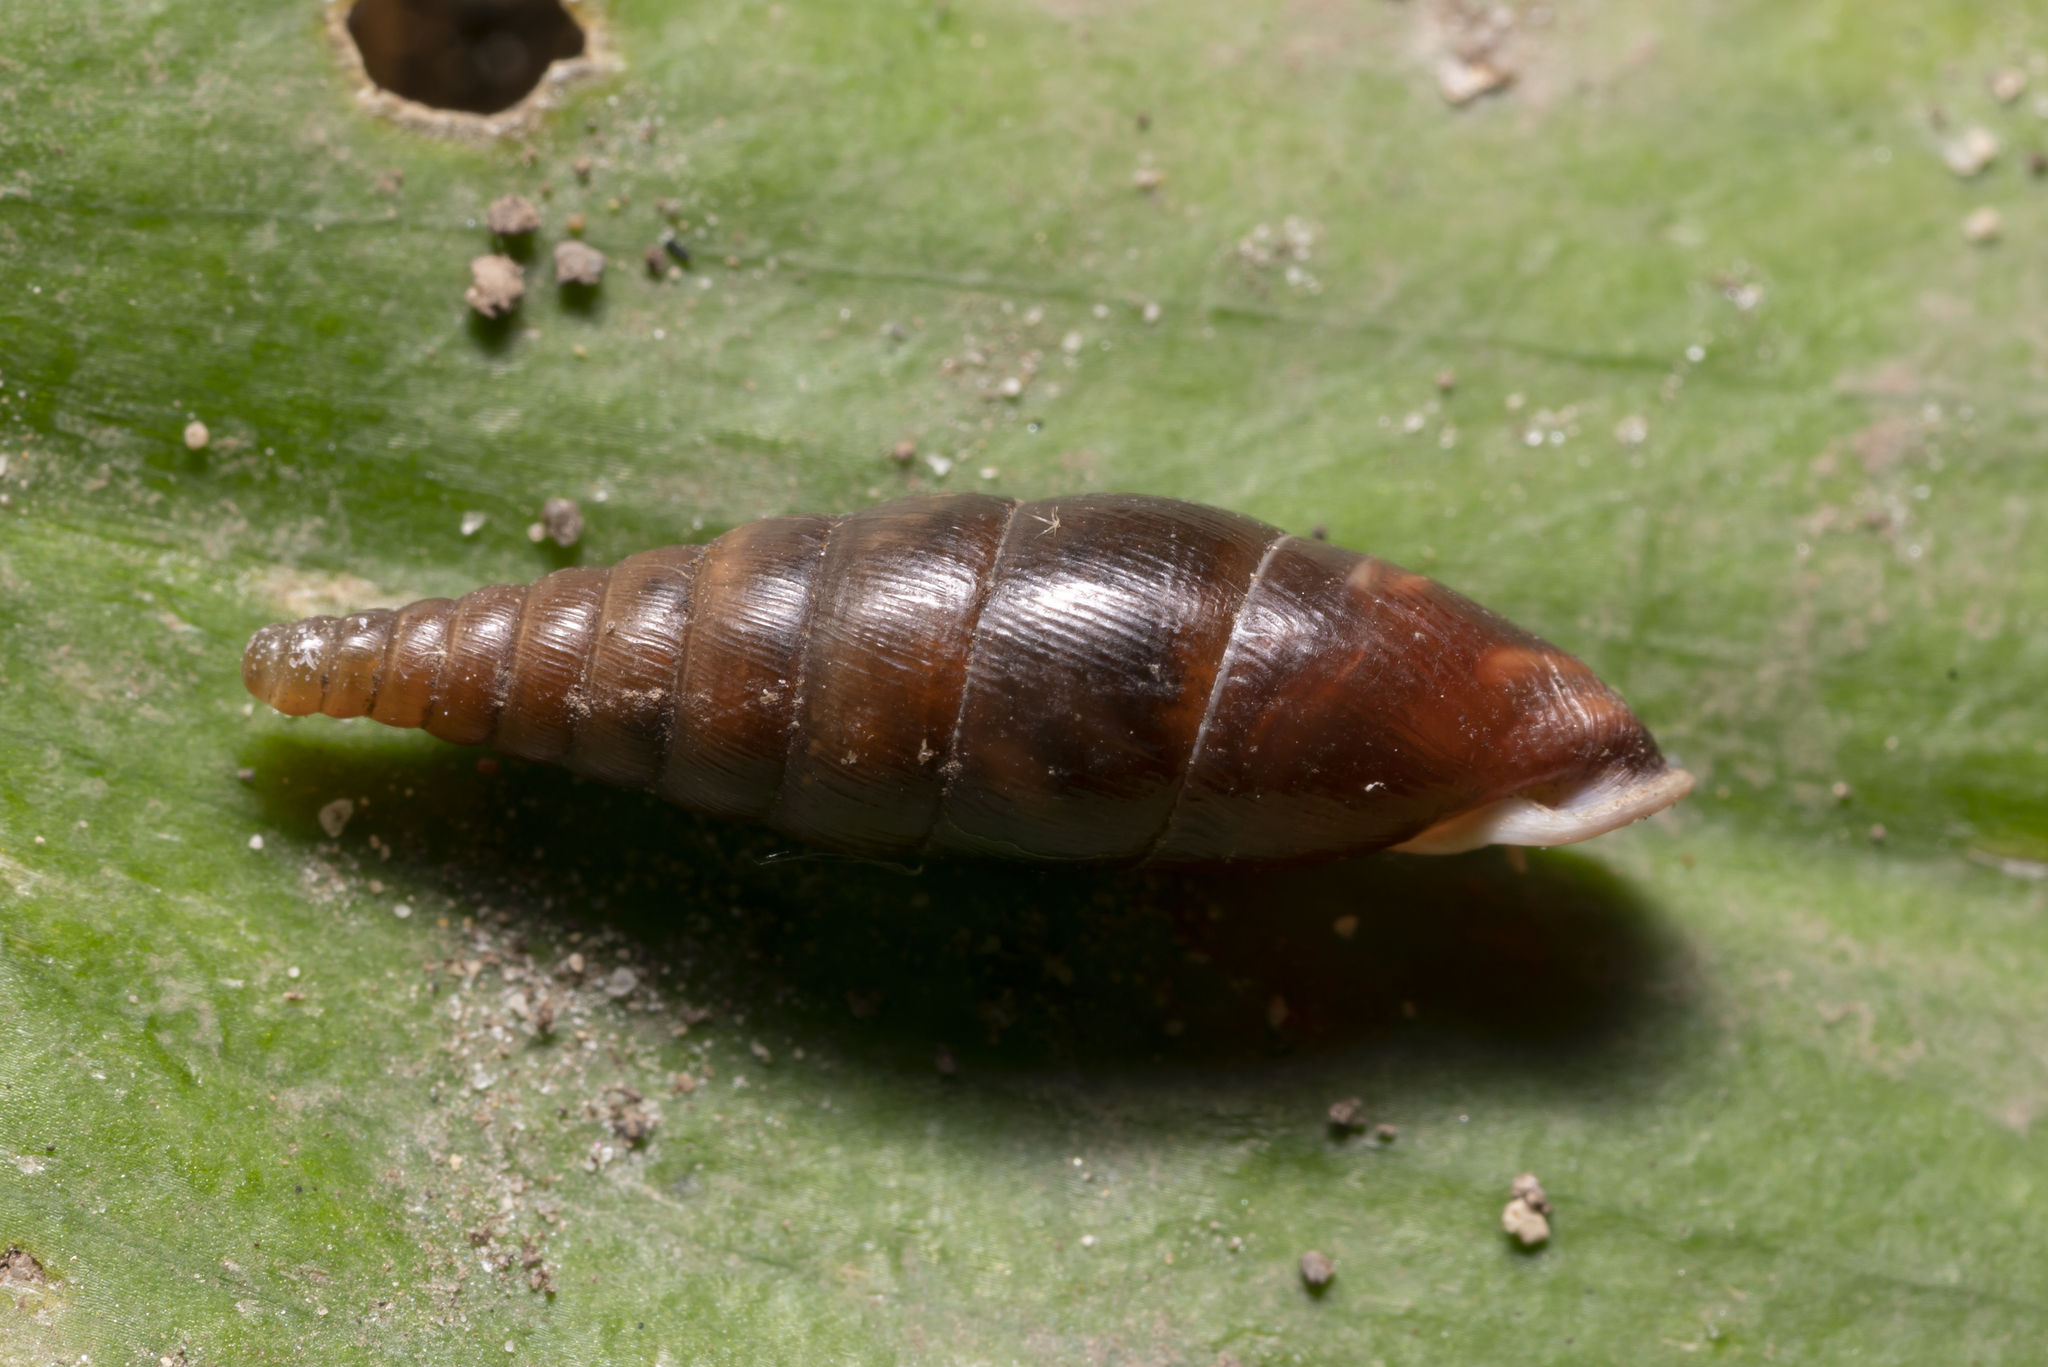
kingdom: Animalia
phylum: Mollusca
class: Gastropoda
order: Stylommatophora
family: Clausiliidae
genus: Cochlodina
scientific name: Cochlodina laminata
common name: Plaited door snail
